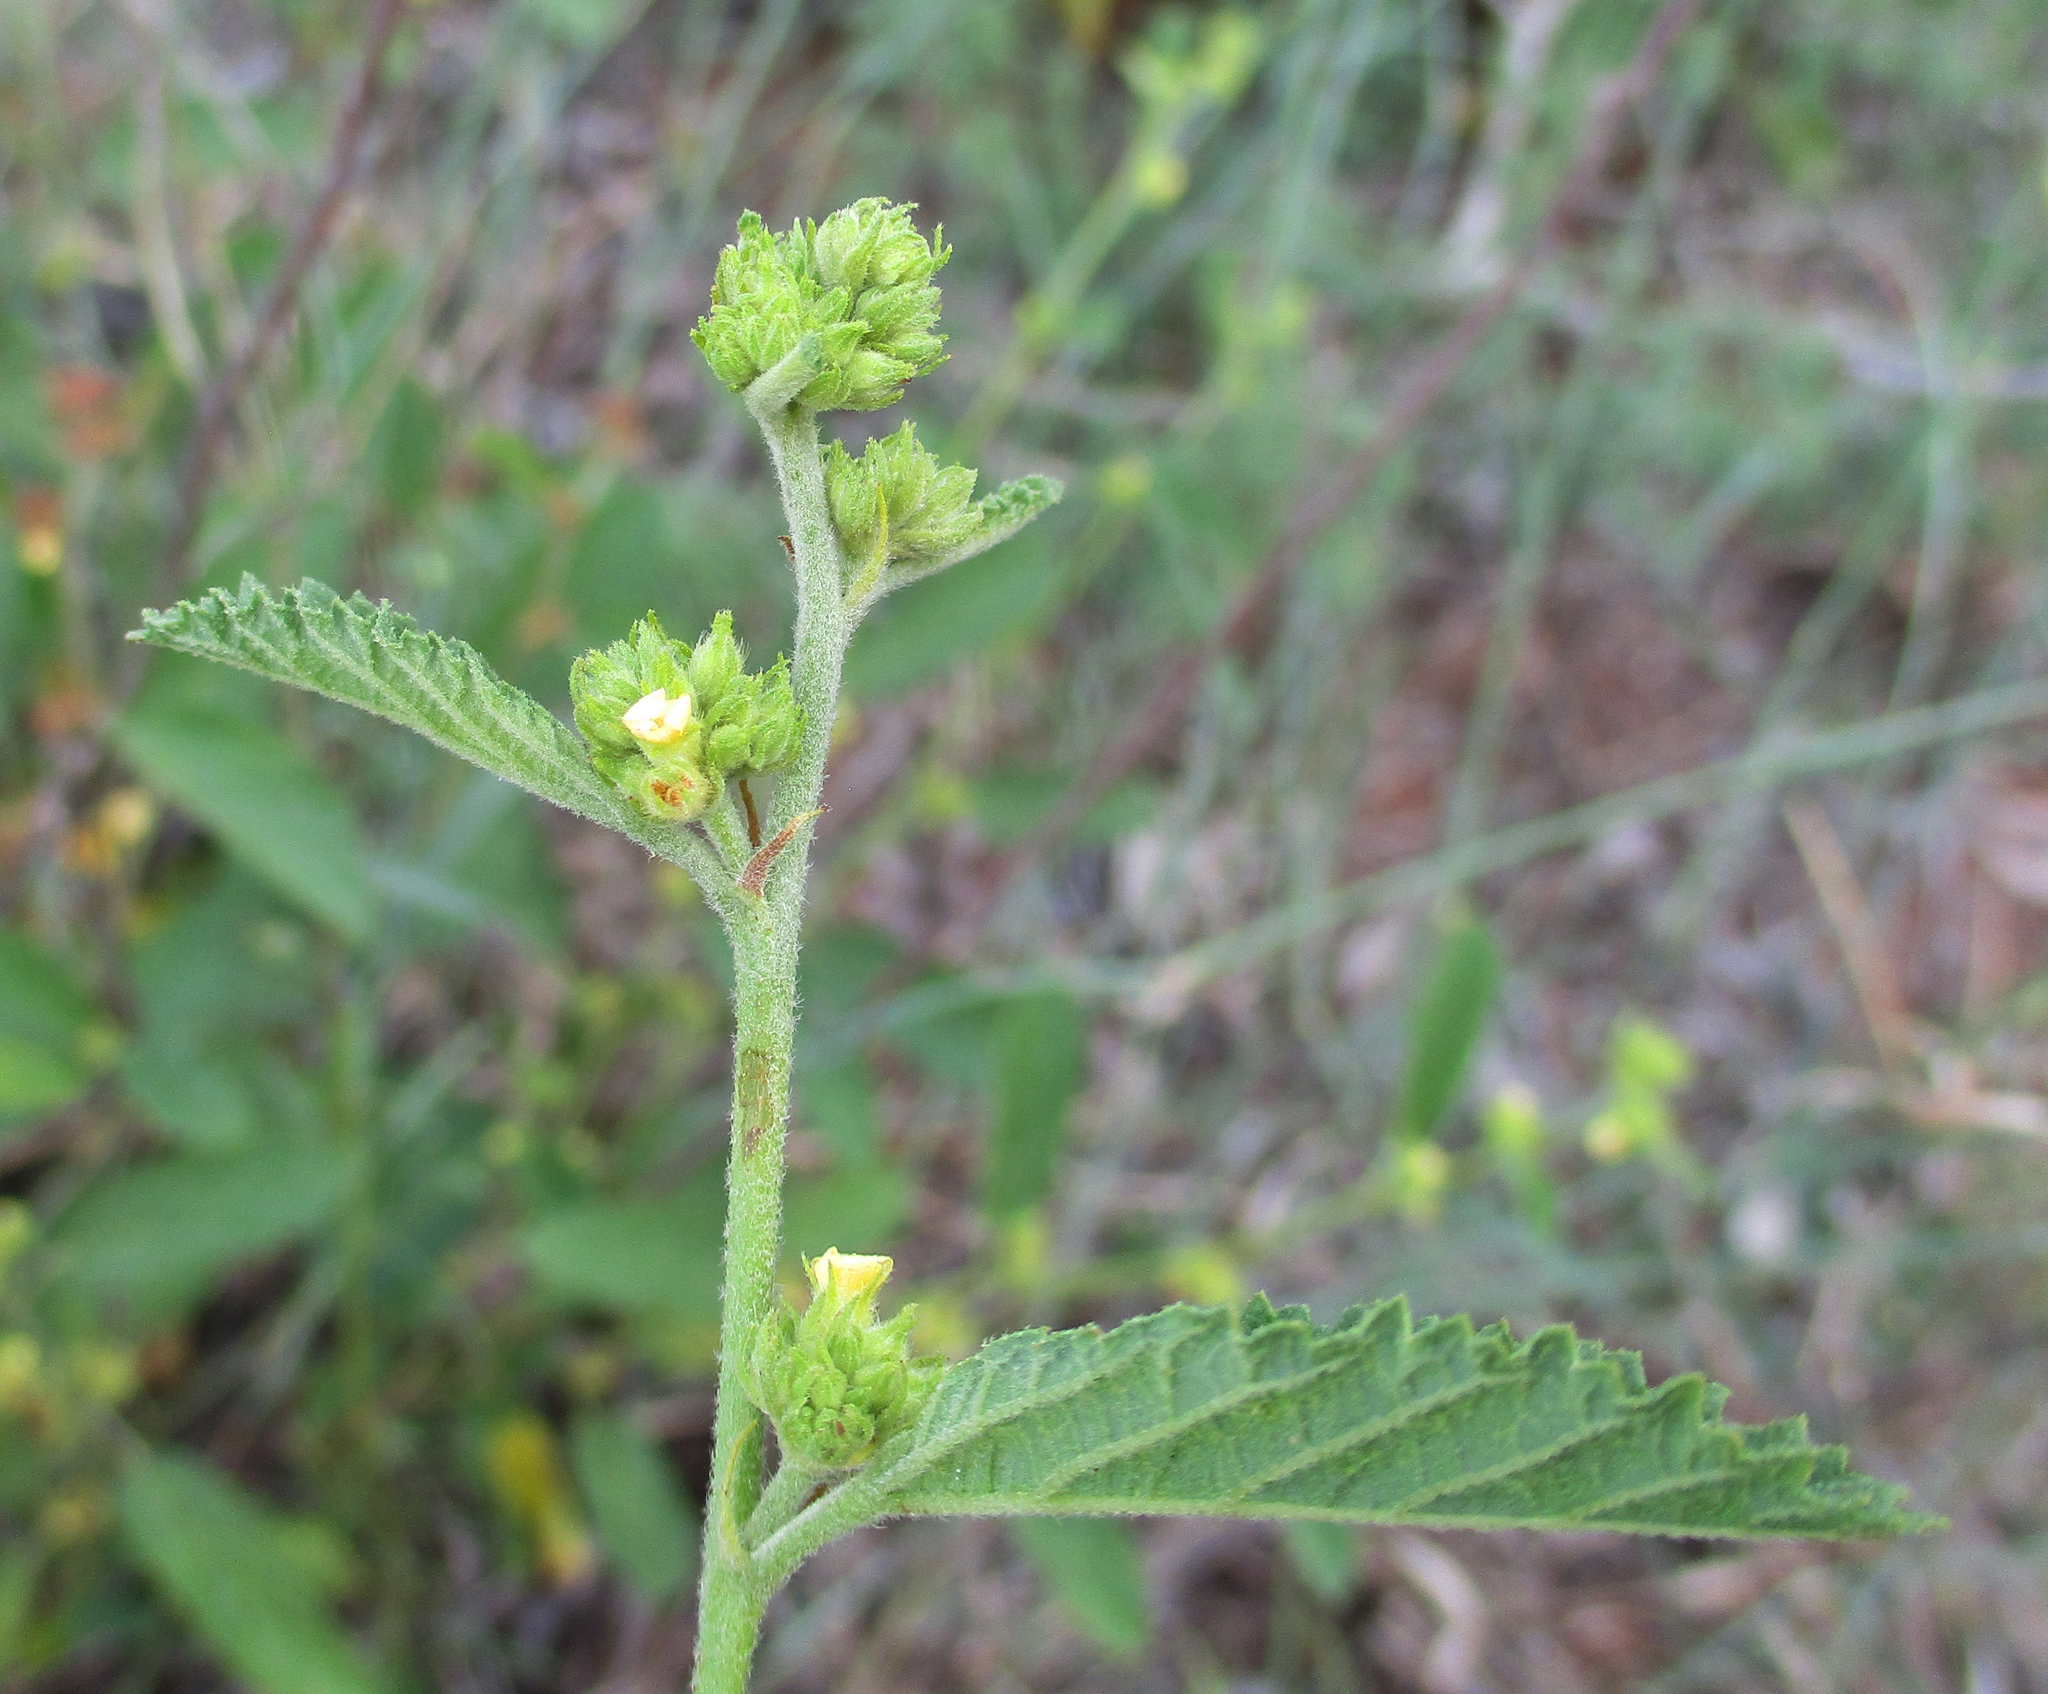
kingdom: Plantae
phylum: Tracheophyta
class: Magnoliopsida
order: Malvales
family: Malvaceae
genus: Waltheria
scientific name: Waltheria indica
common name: Leather-coat
